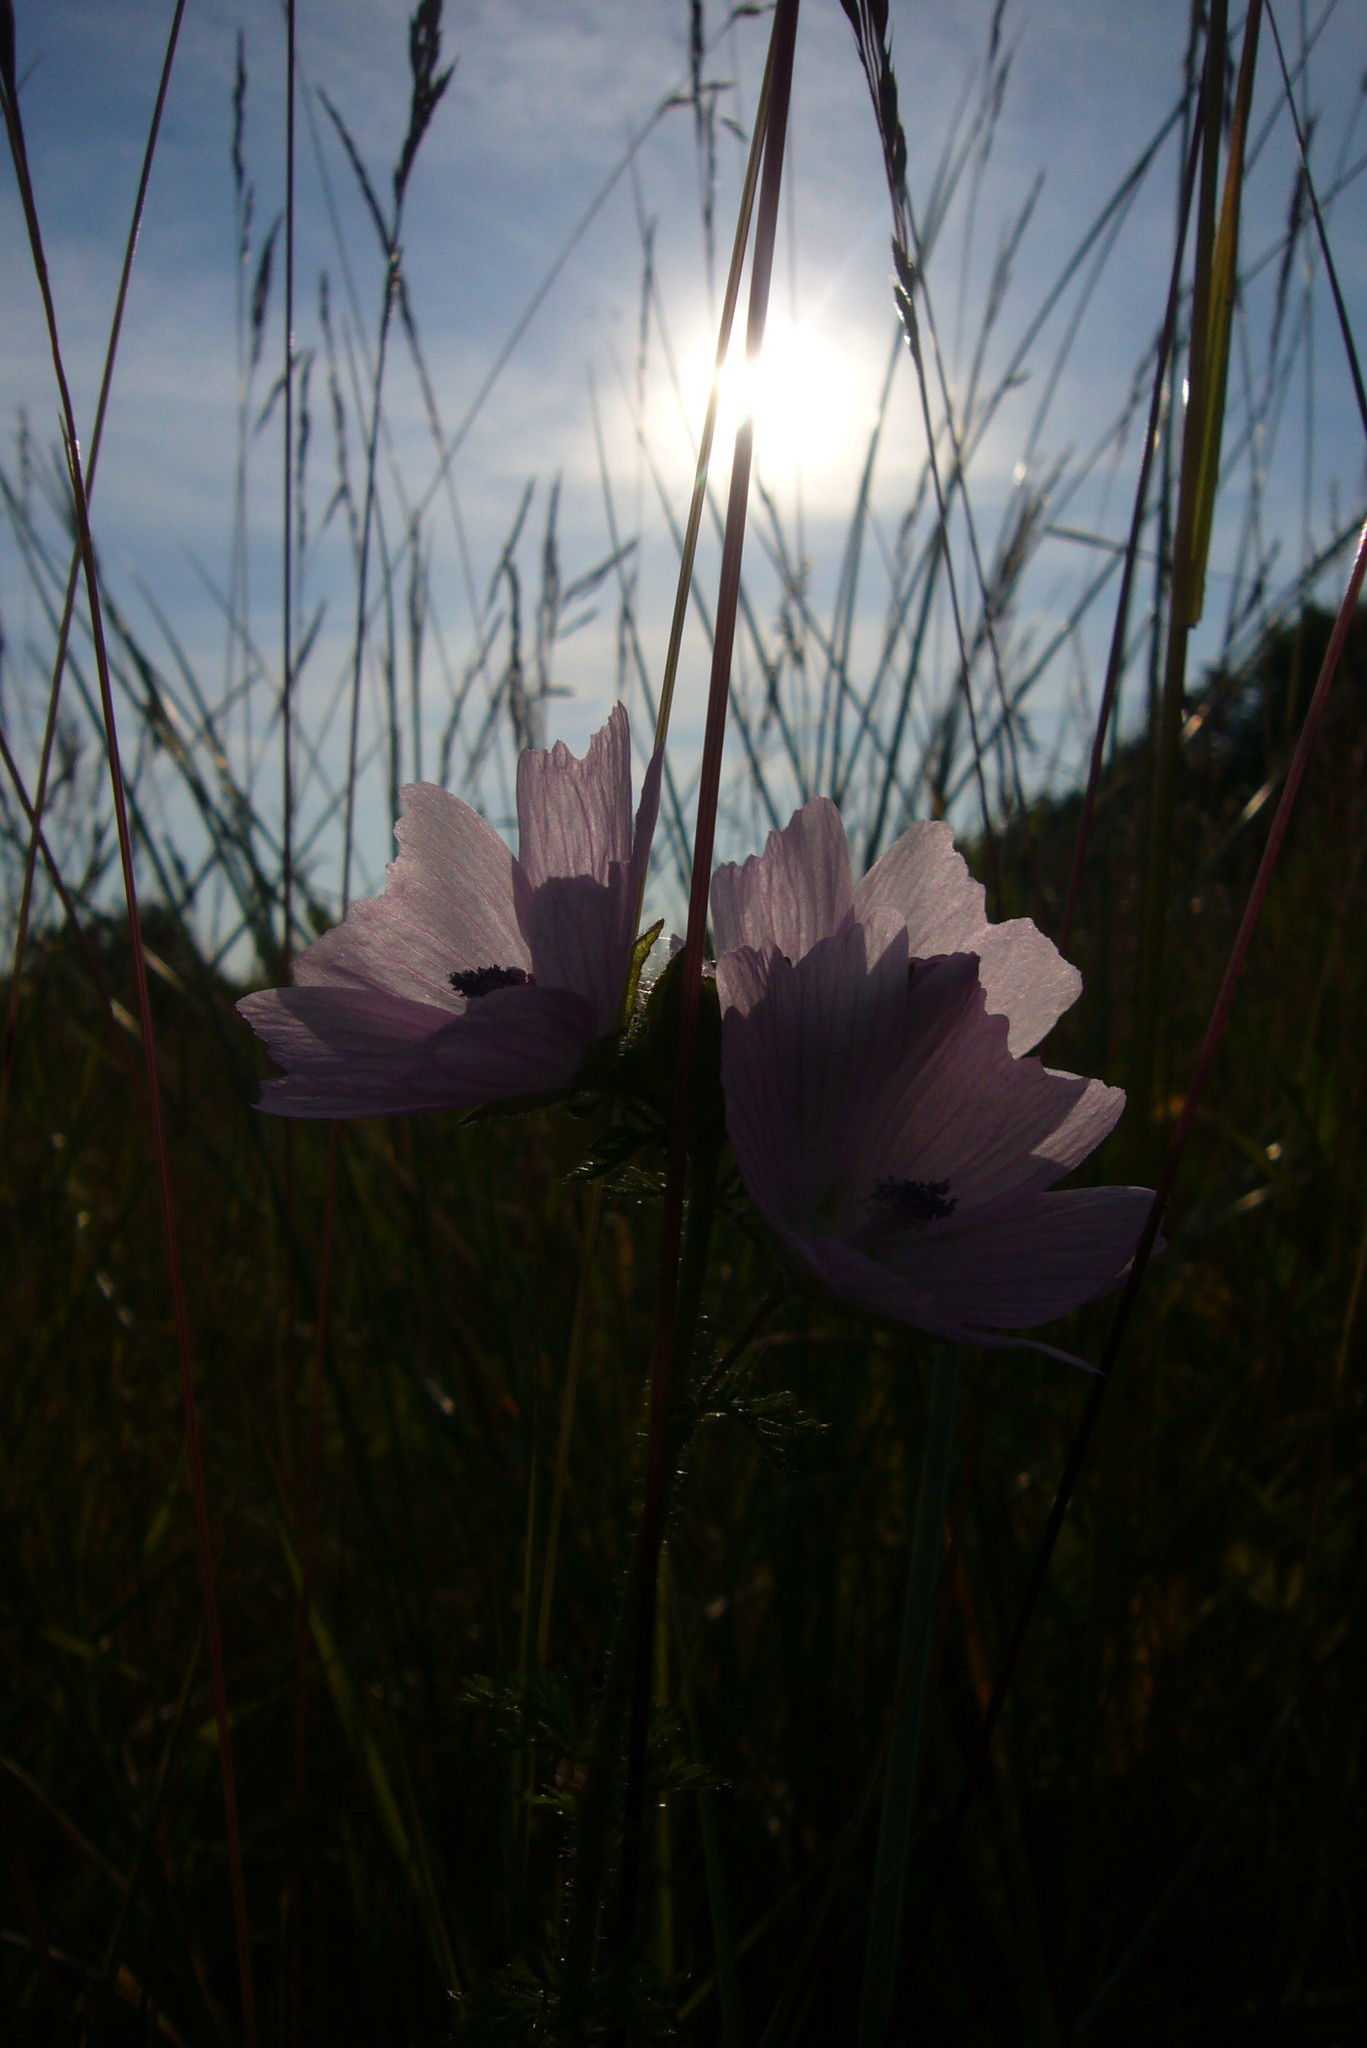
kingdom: Plantae
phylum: Tracheophyta
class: Magnoliopsida
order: Malvales
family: Malvaceae
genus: Malva
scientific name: Malva moschata
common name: Musk mallow
